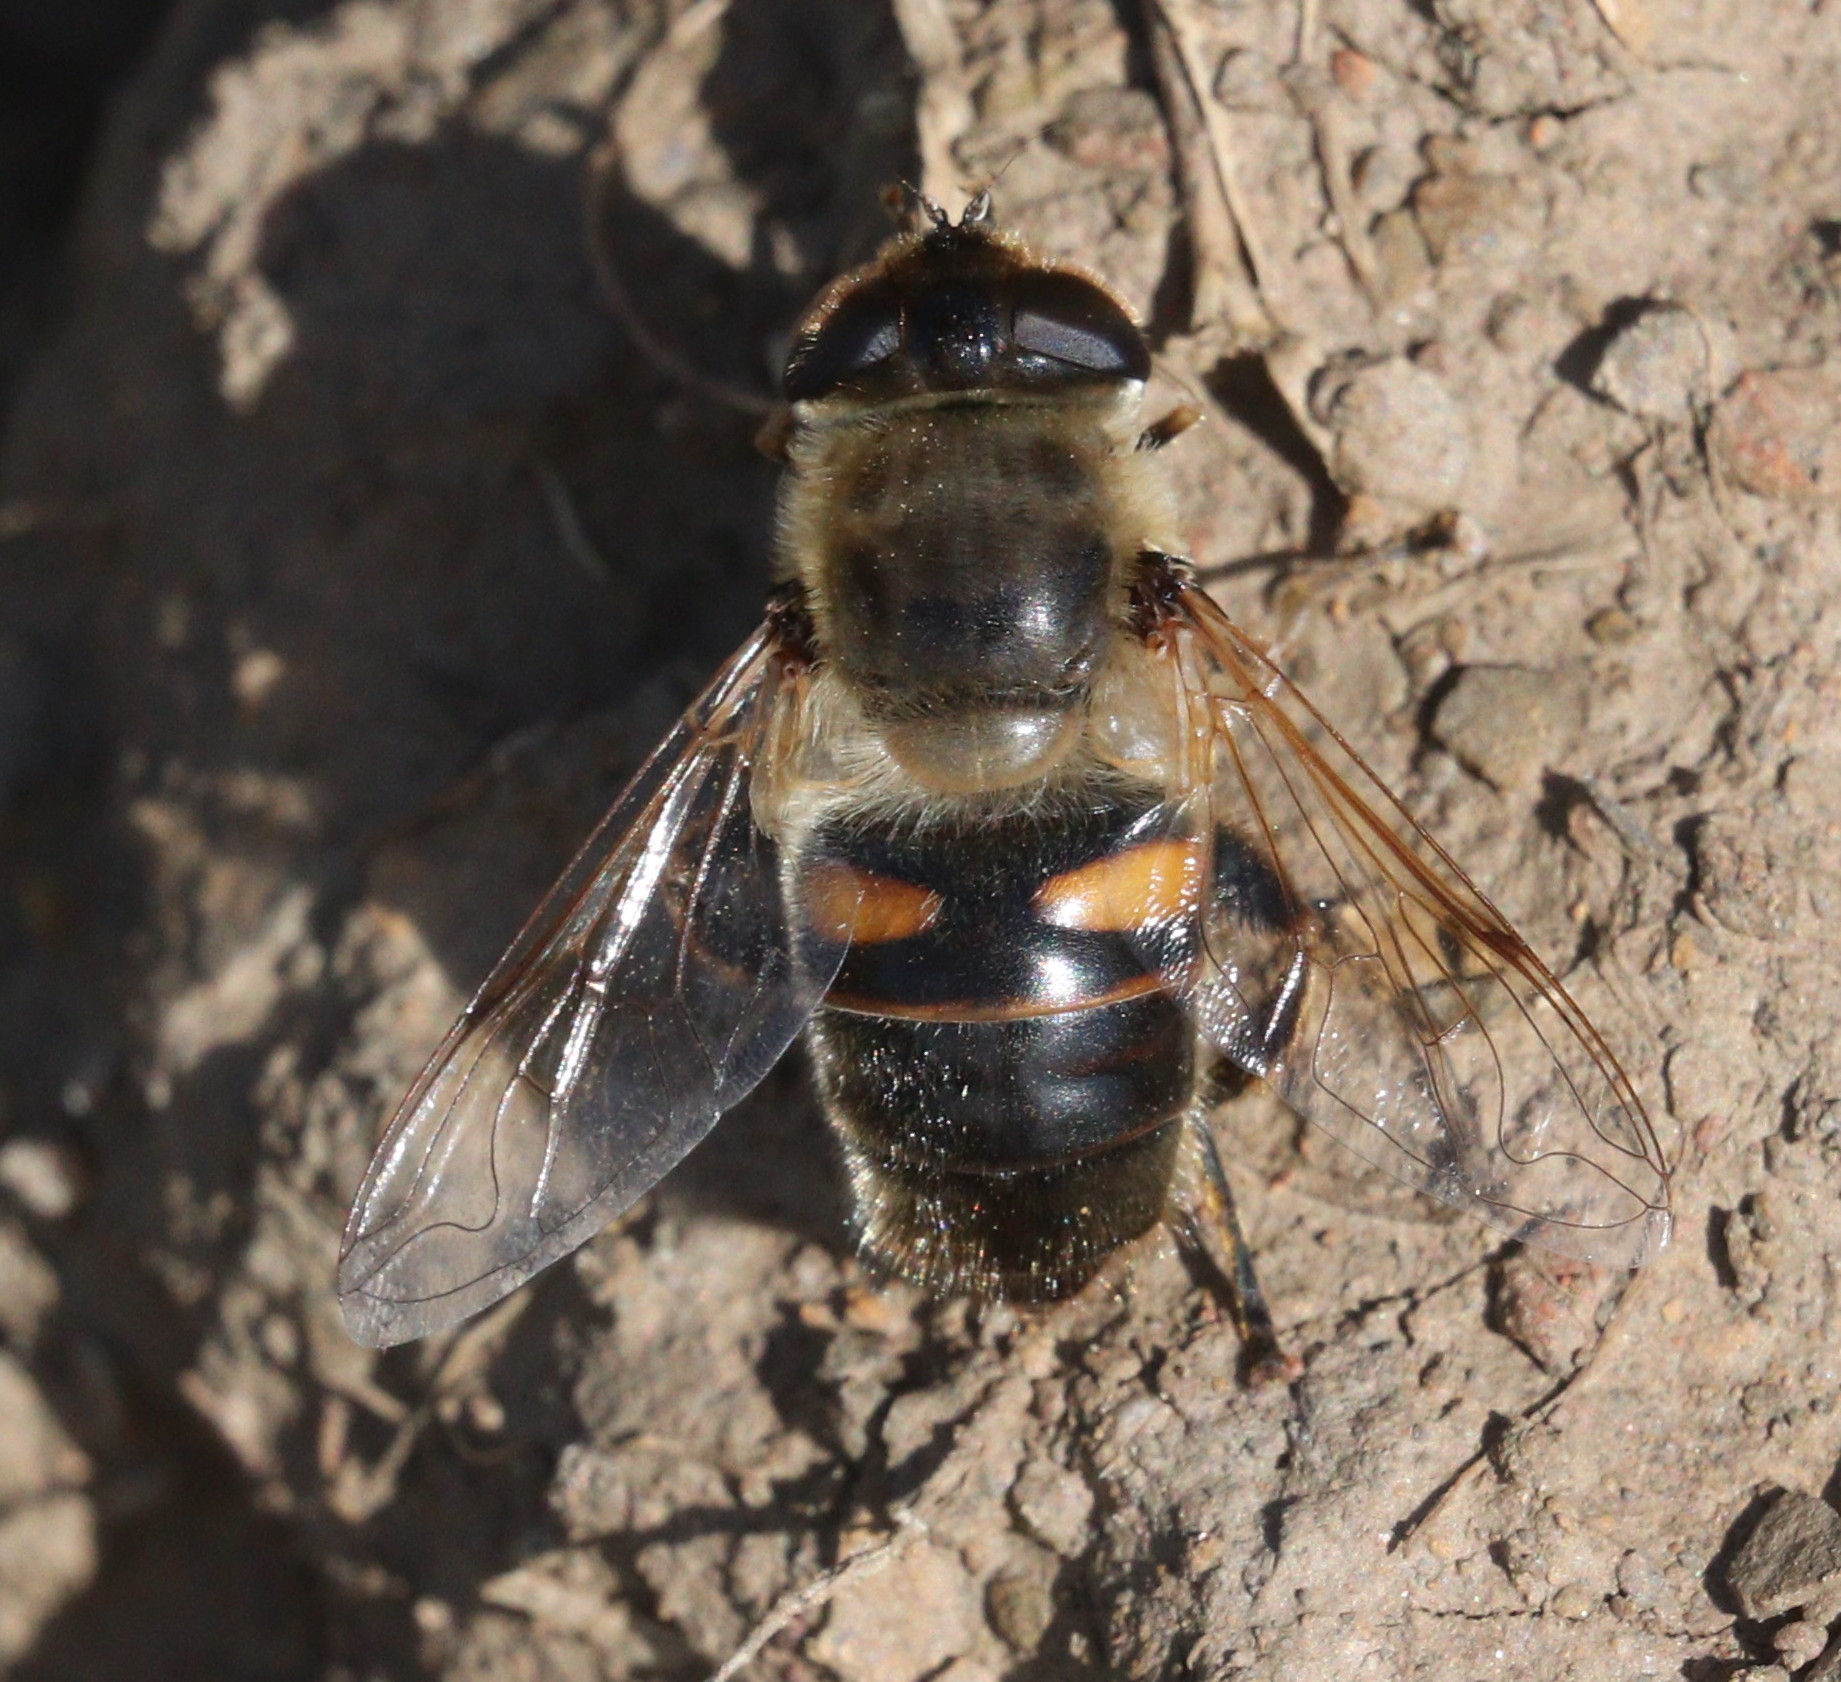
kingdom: Animalia
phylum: Arthropoda
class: Insecta
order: Diptera
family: Syrphidae
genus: Eristalis
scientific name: Eristalis tenax
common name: Drone fly
